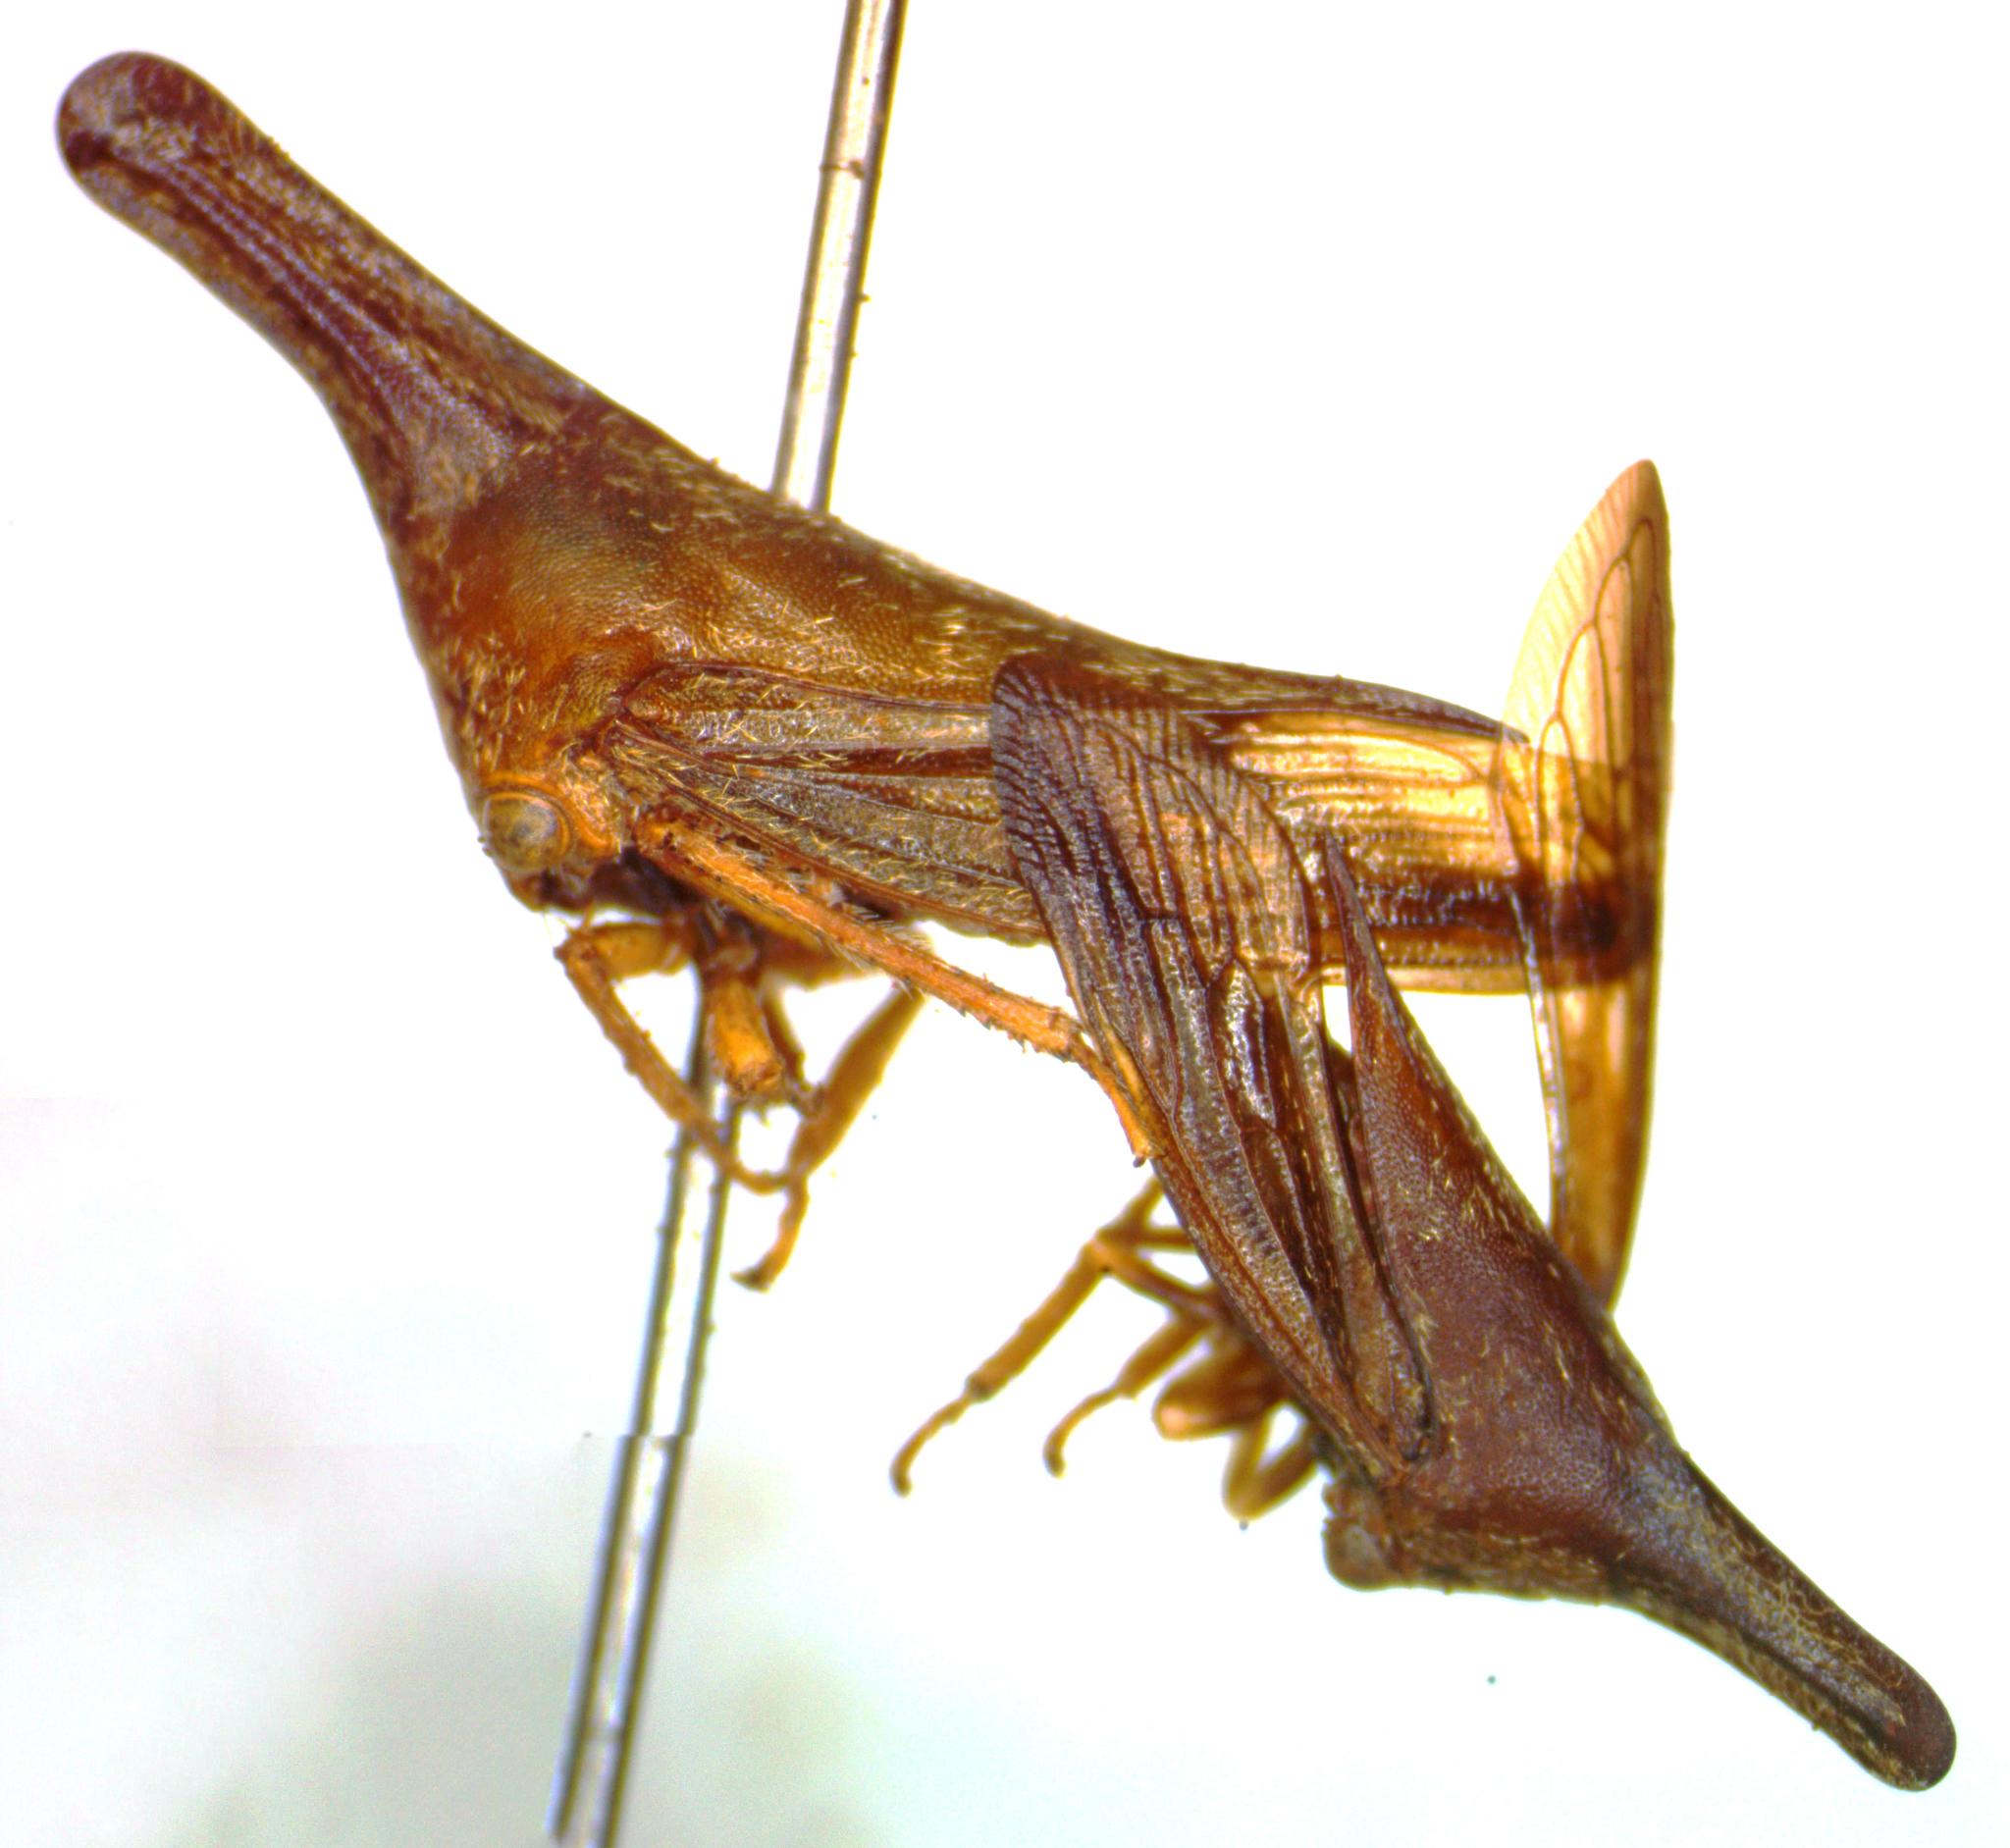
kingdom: Animalia
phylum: Arthropoda
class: Insecta
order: Hemiptera
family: Membracidae
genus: Aconophora
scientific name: Aconophora laminata
